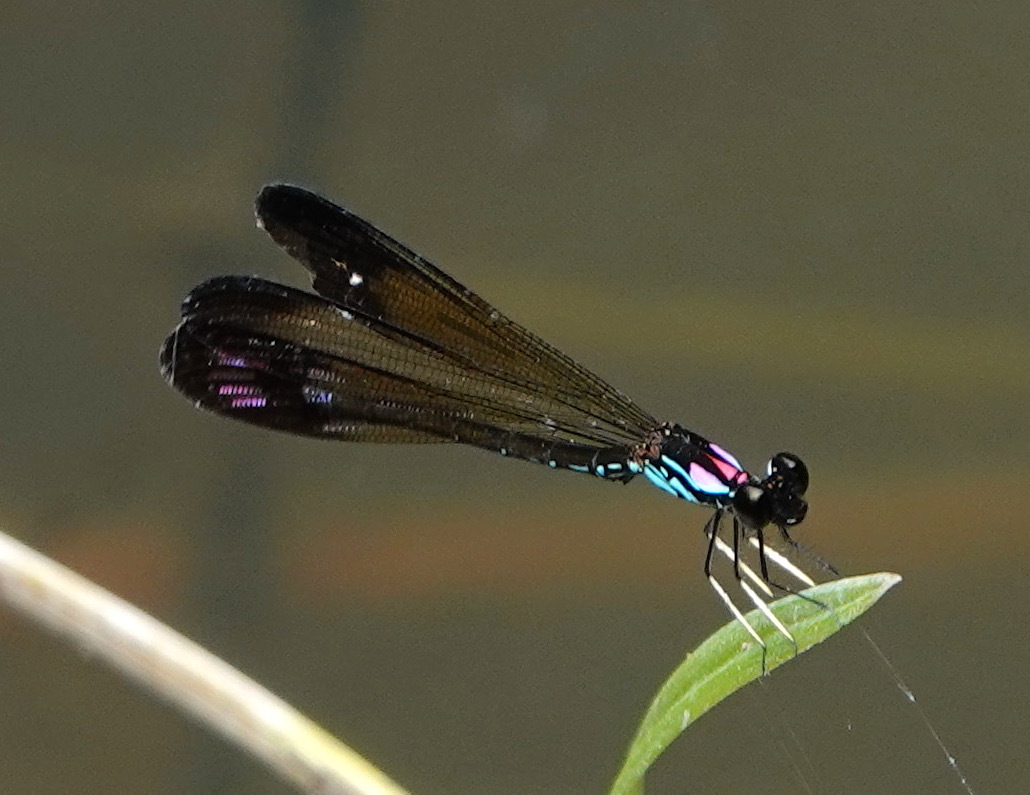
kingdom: Animalia
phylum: Arthropoda
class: Insecta
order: Odonata
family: Chlorocyphidae
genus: Heliocypha
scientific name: Heliocypha biforata
